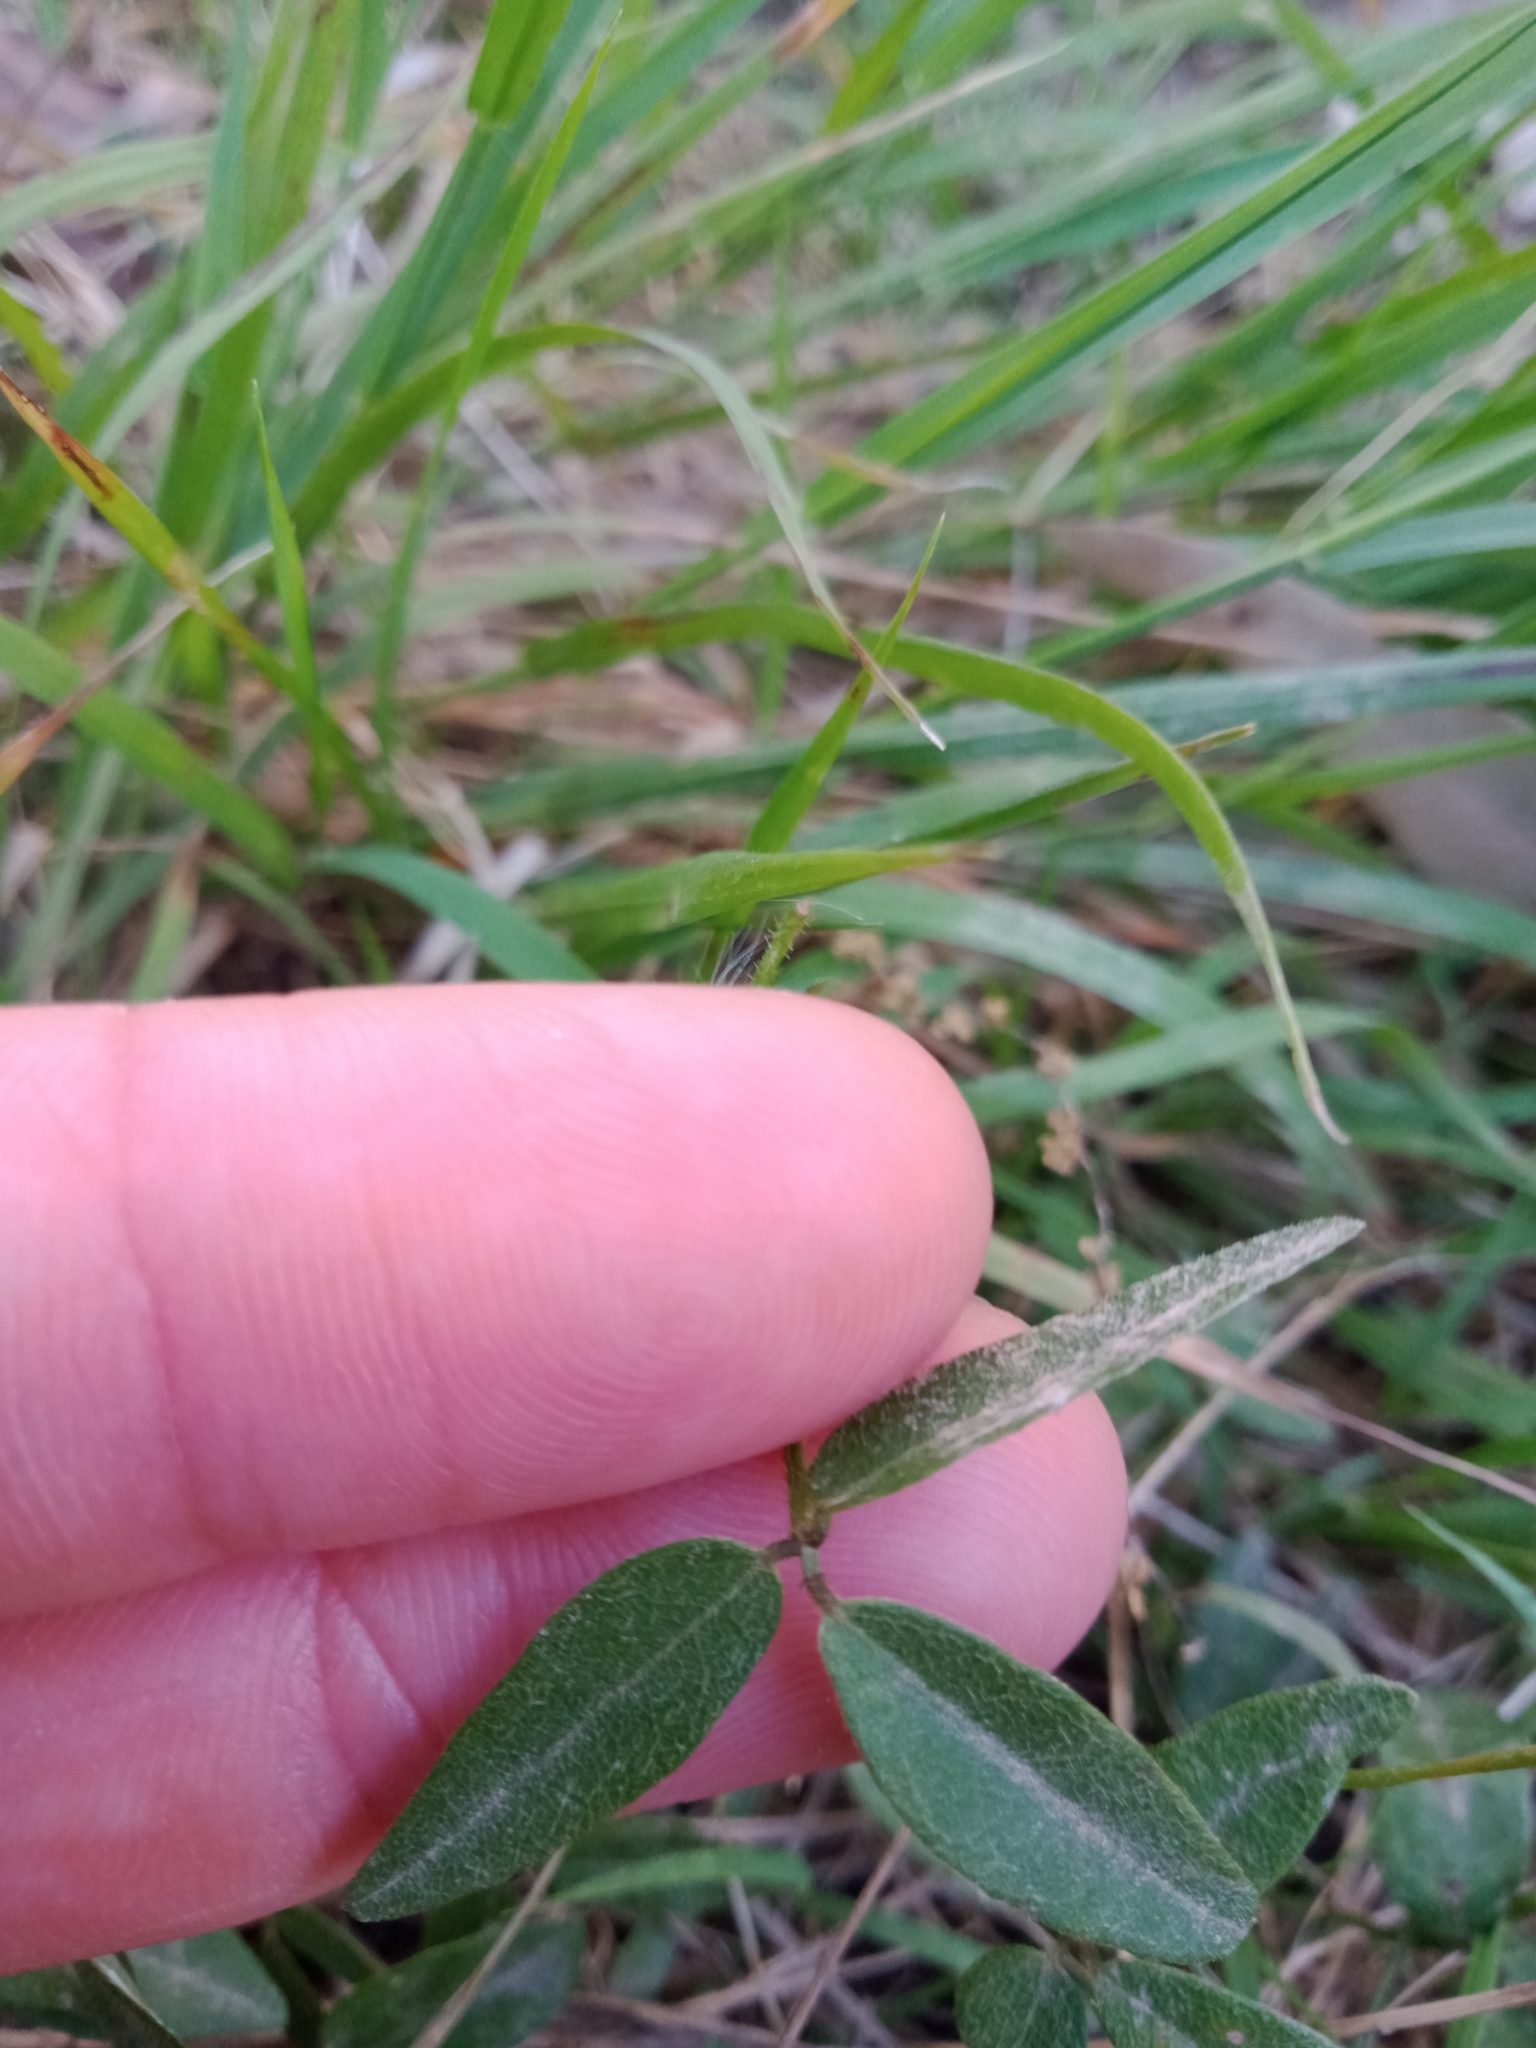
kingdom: Plantae
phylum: Tracheophyta
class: Magnoliopsida
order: Fabales
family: Fabaceae
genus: Glycine
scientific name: Glycine tabacina
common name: Pea glycine
